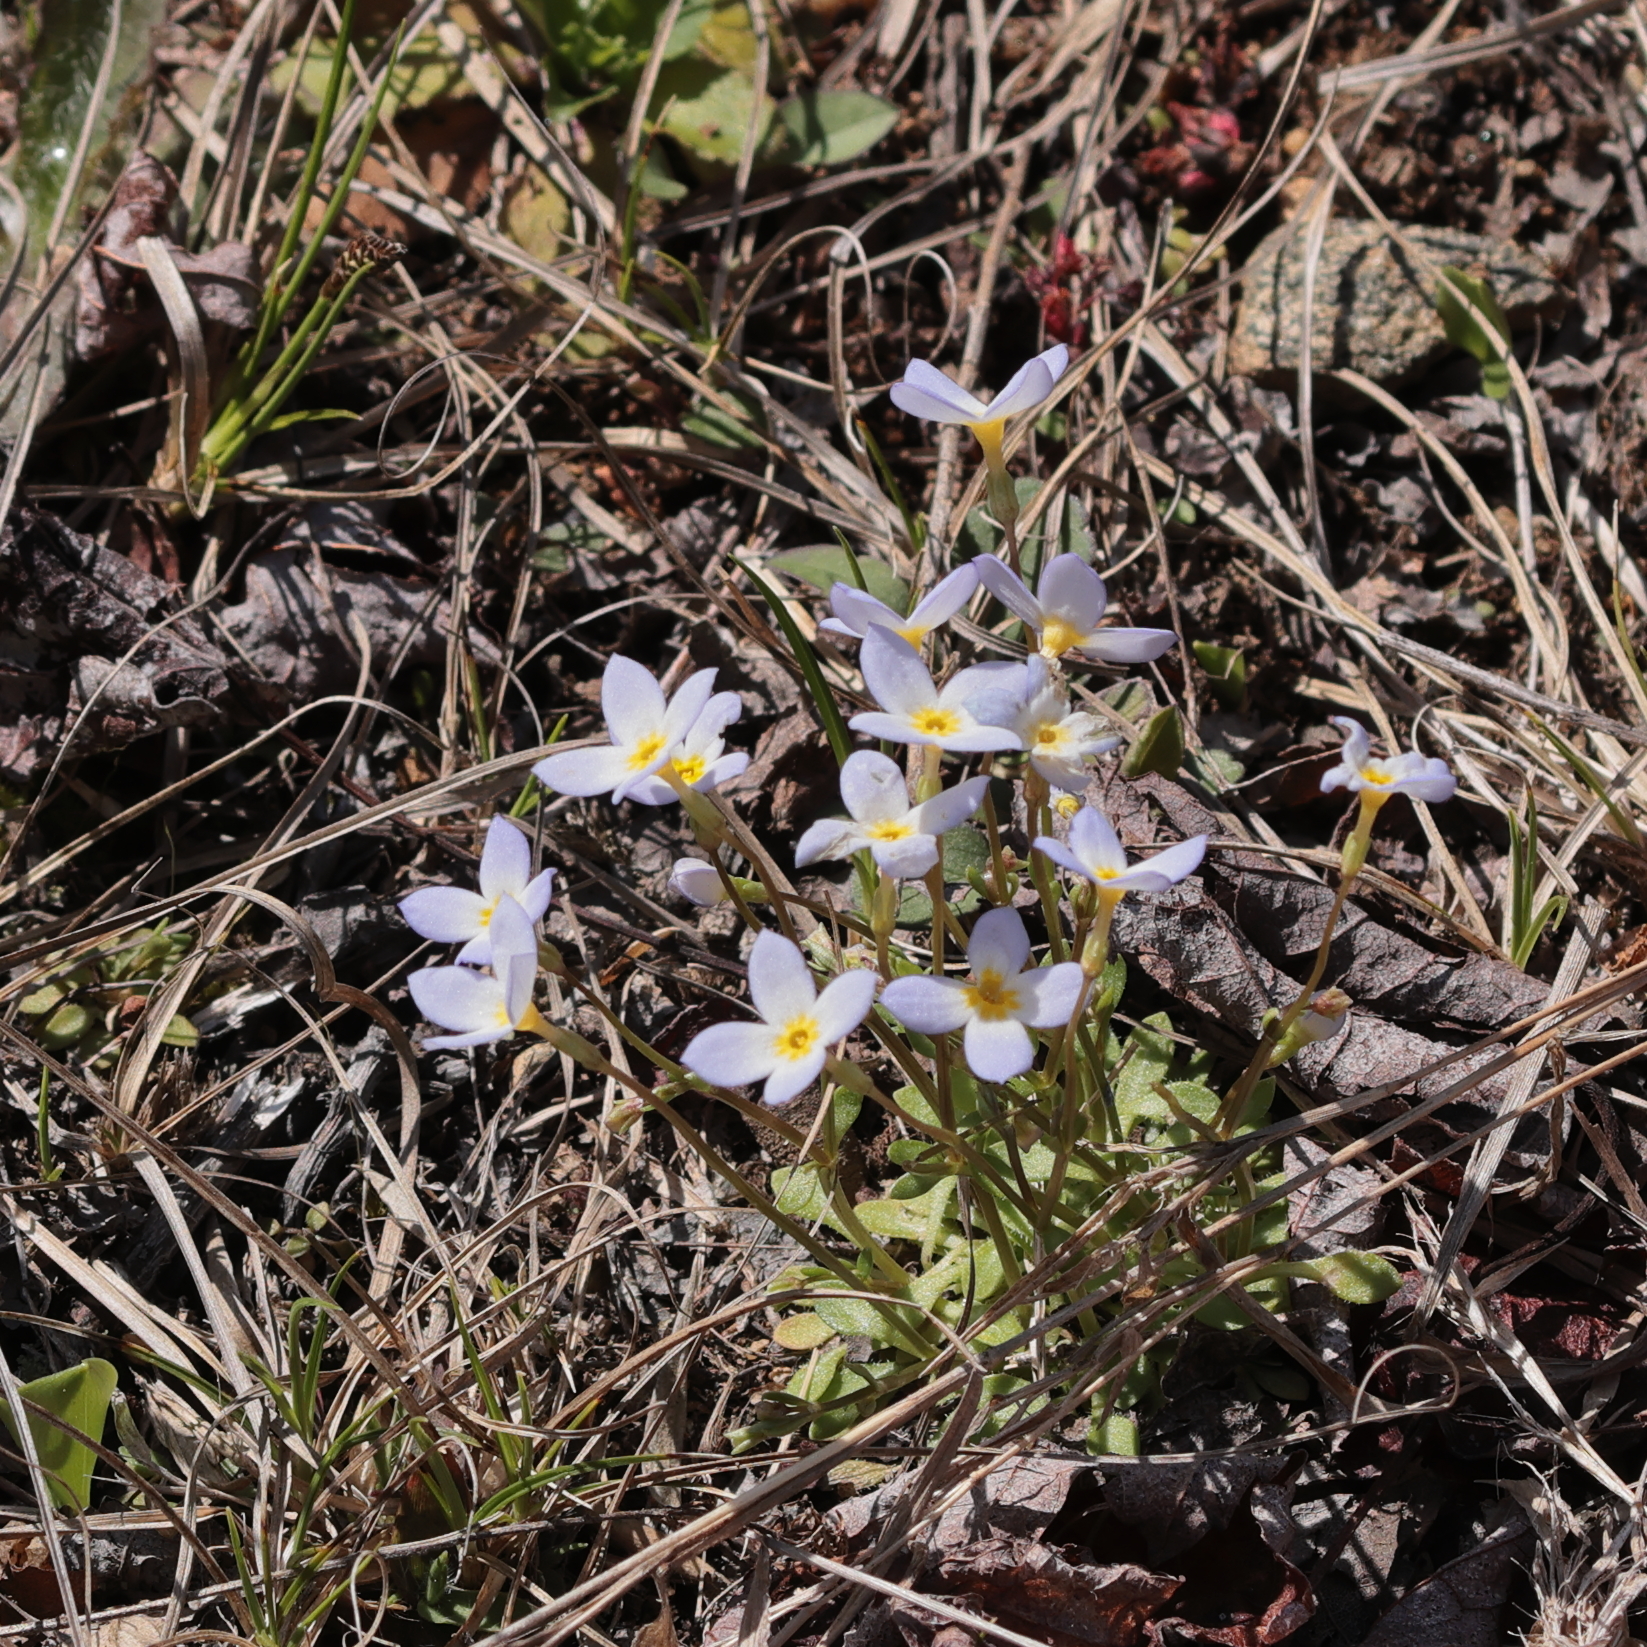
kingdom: Plantae
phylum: Tracheophyta
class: Magnoliopsida
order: Gentianales
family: Rubiaceae
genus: Houstonia
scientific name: Houstonia caerulea
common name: Bluets
